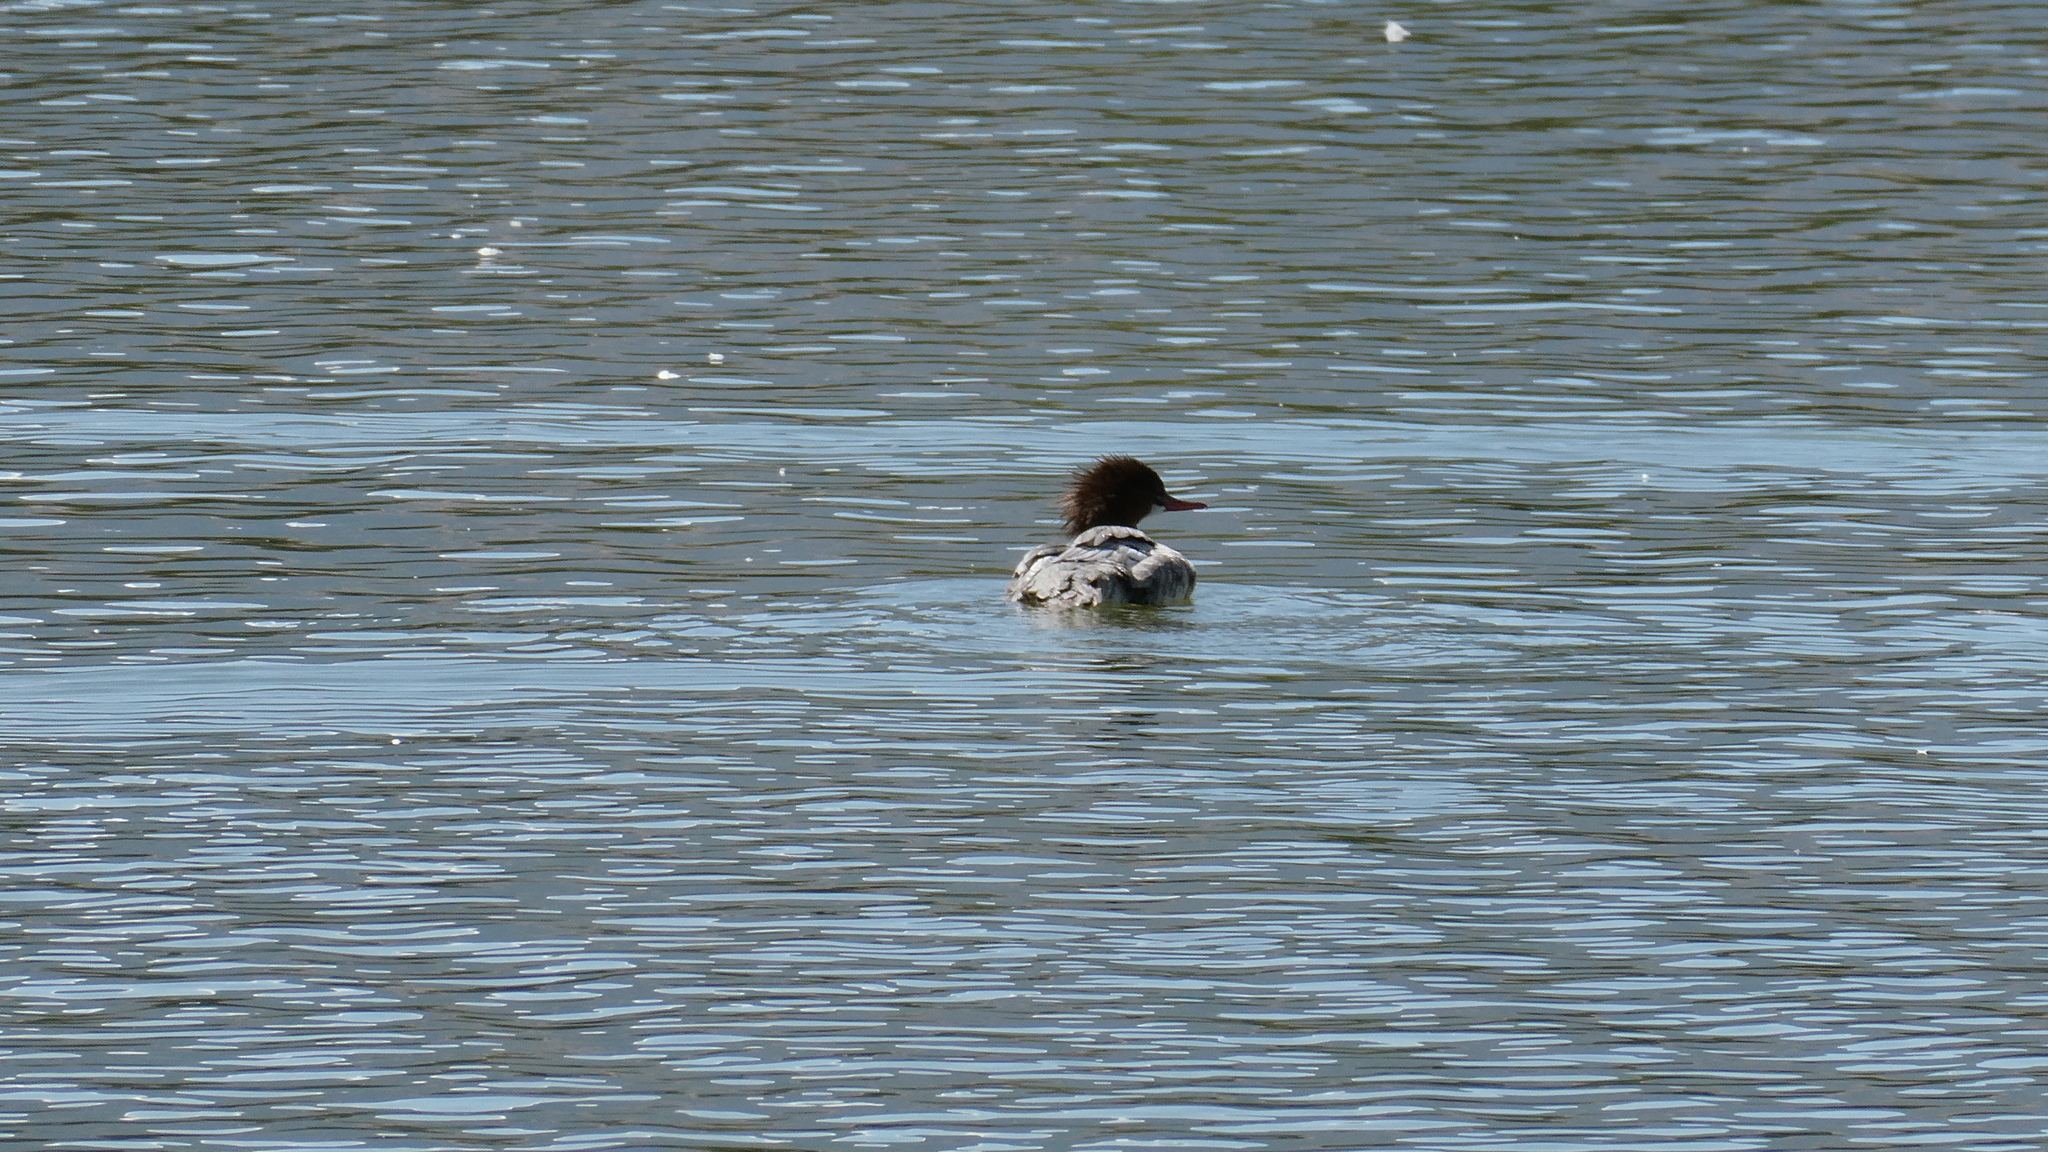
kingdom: Animalia
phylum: Chordata
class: Aves
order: Anseriformes
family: Anatidae
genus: Mergus
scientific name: Mergus merganser
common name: Common merganser
